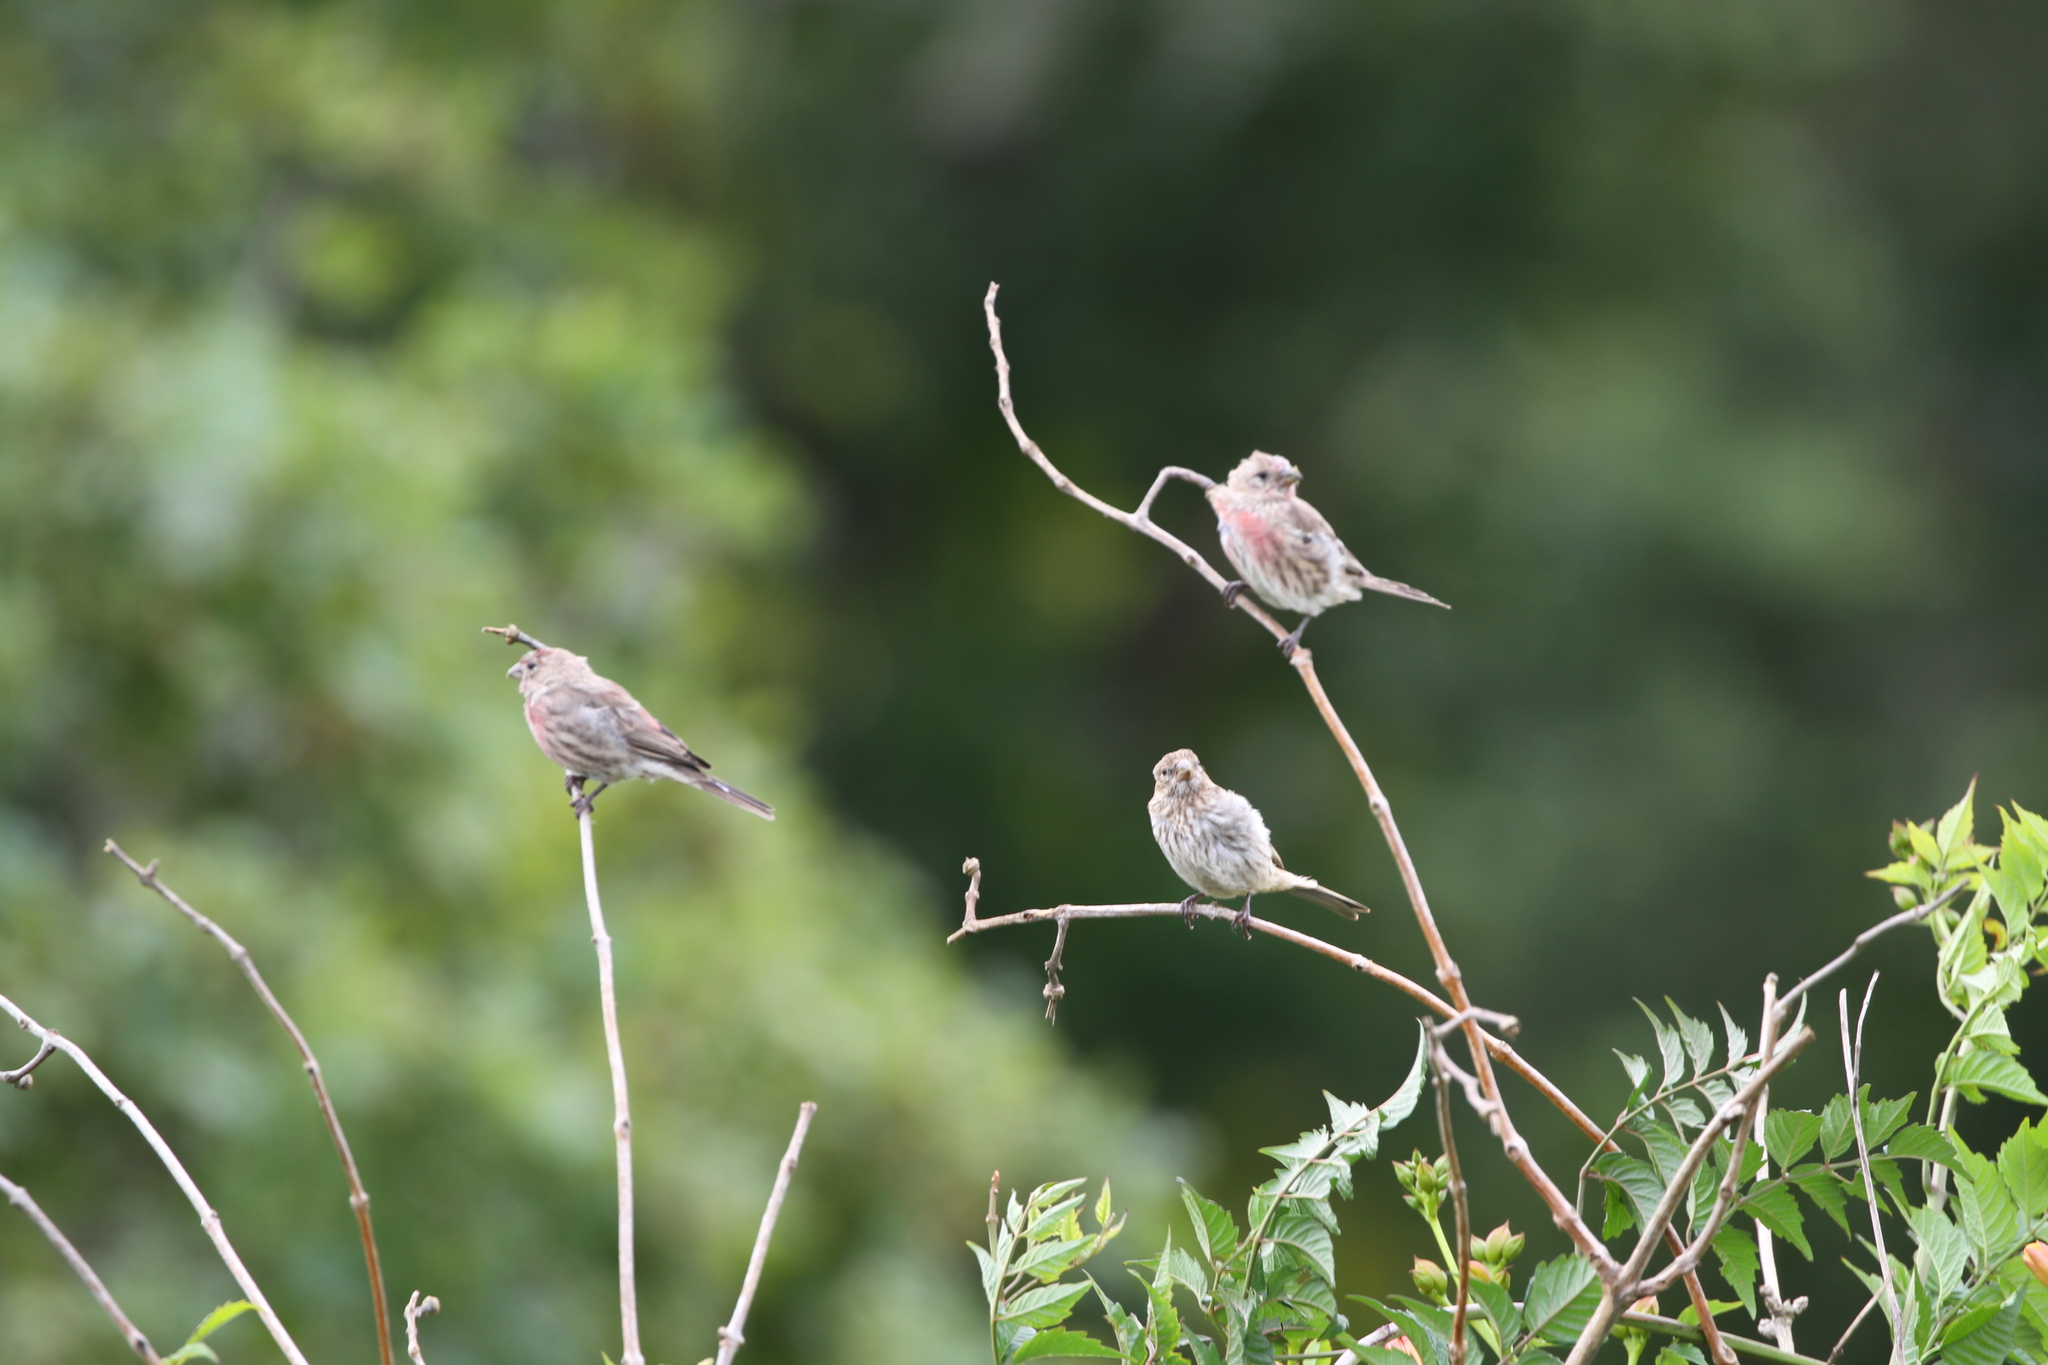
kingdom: Animalia
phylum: Chordata
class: Aves
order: Passeriformes
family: Fringillidae
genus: Haemorhous
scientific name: Haemorhous mexicanus
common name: House finch
